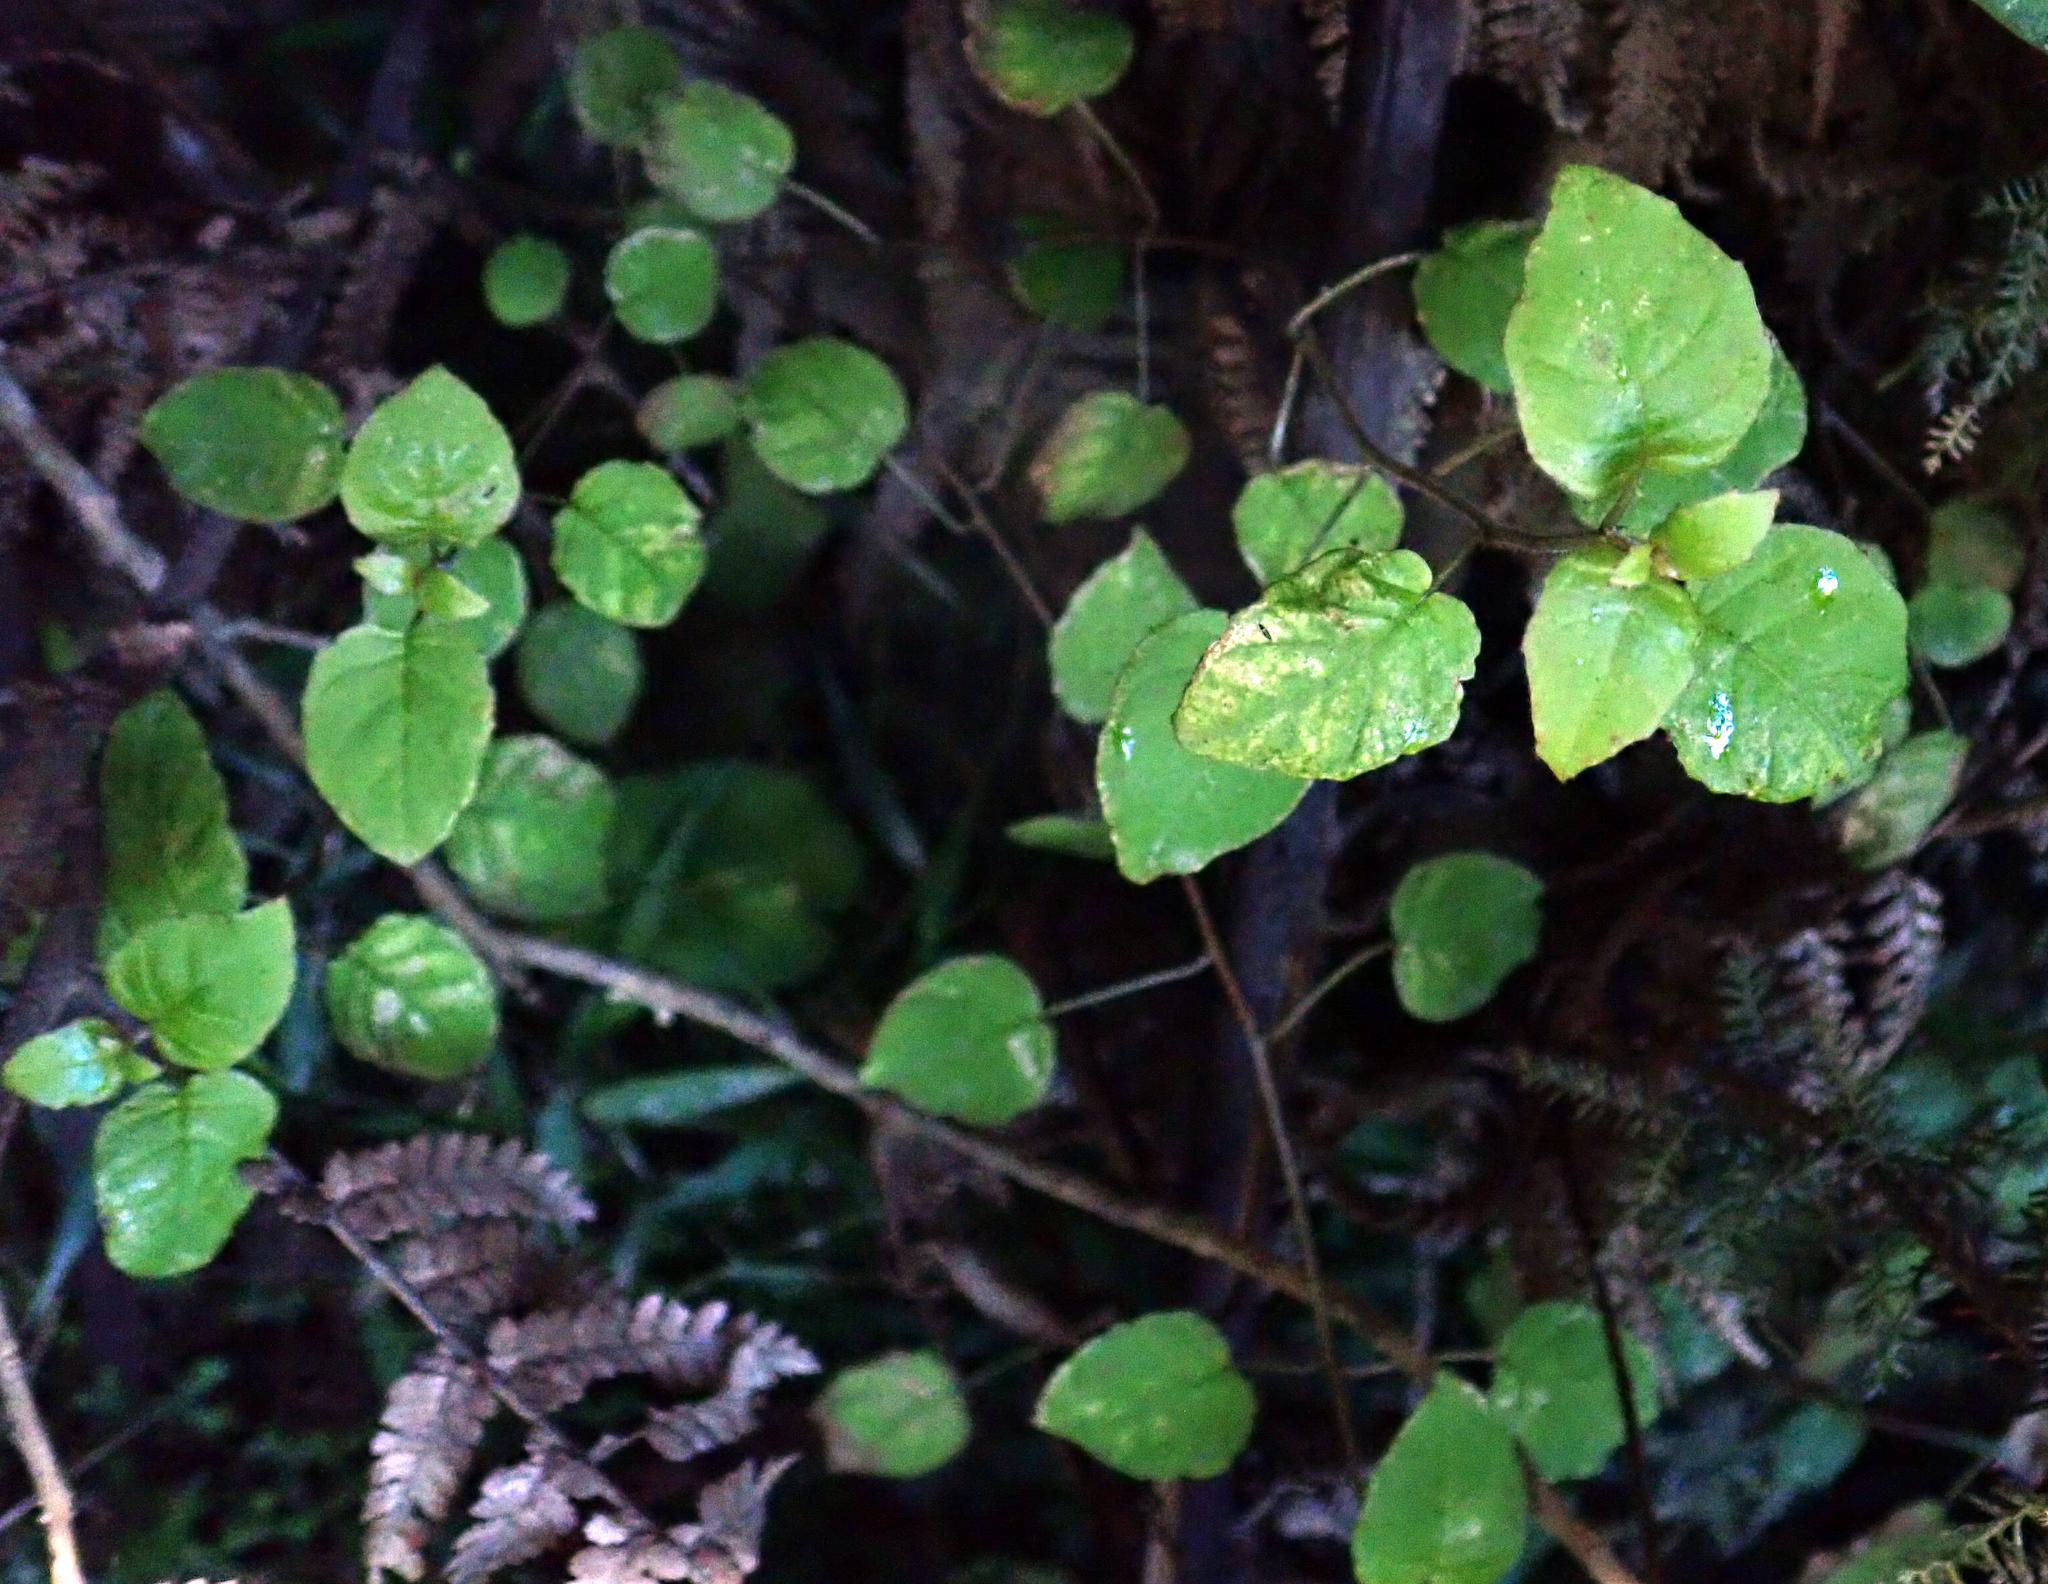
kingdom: Plantae
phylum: Tracheophyta
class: Magnoliopsida
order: Myrtales
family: Onagraceae
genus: Fuchsia
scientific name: Fuchsia perscandens
